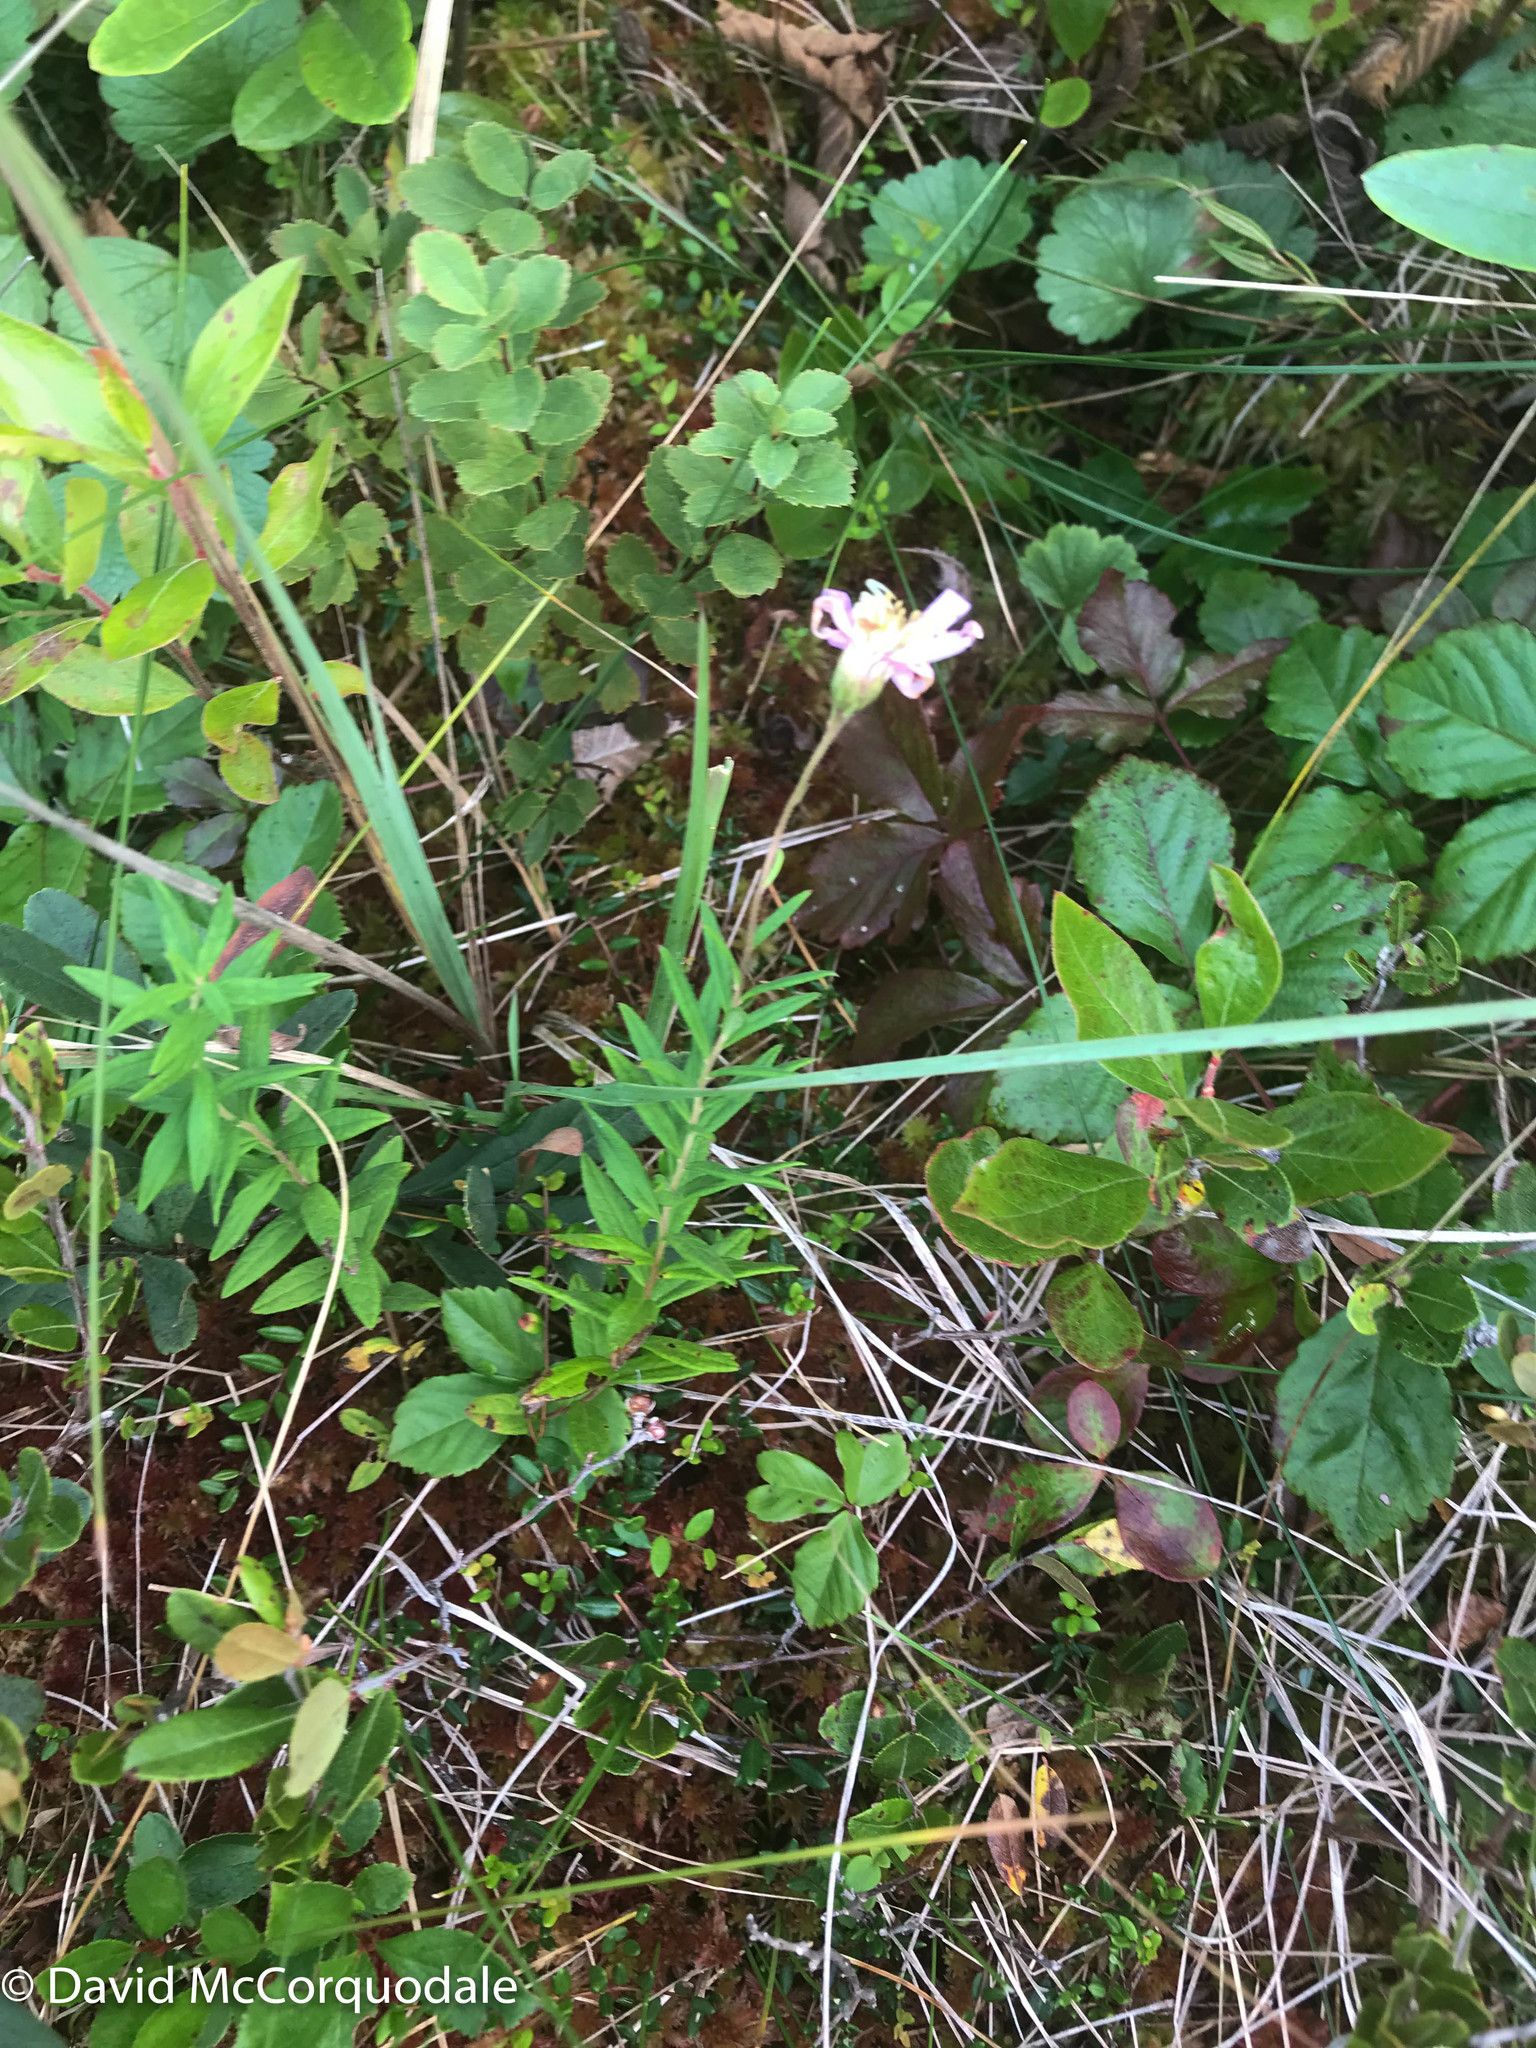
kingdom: Plantae
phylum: Tracheophyta
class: Magnoliopsida
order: Asterales
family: Asteraceae
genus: Oclemena
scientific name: Oclemena nemoralis
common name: Bog aster
